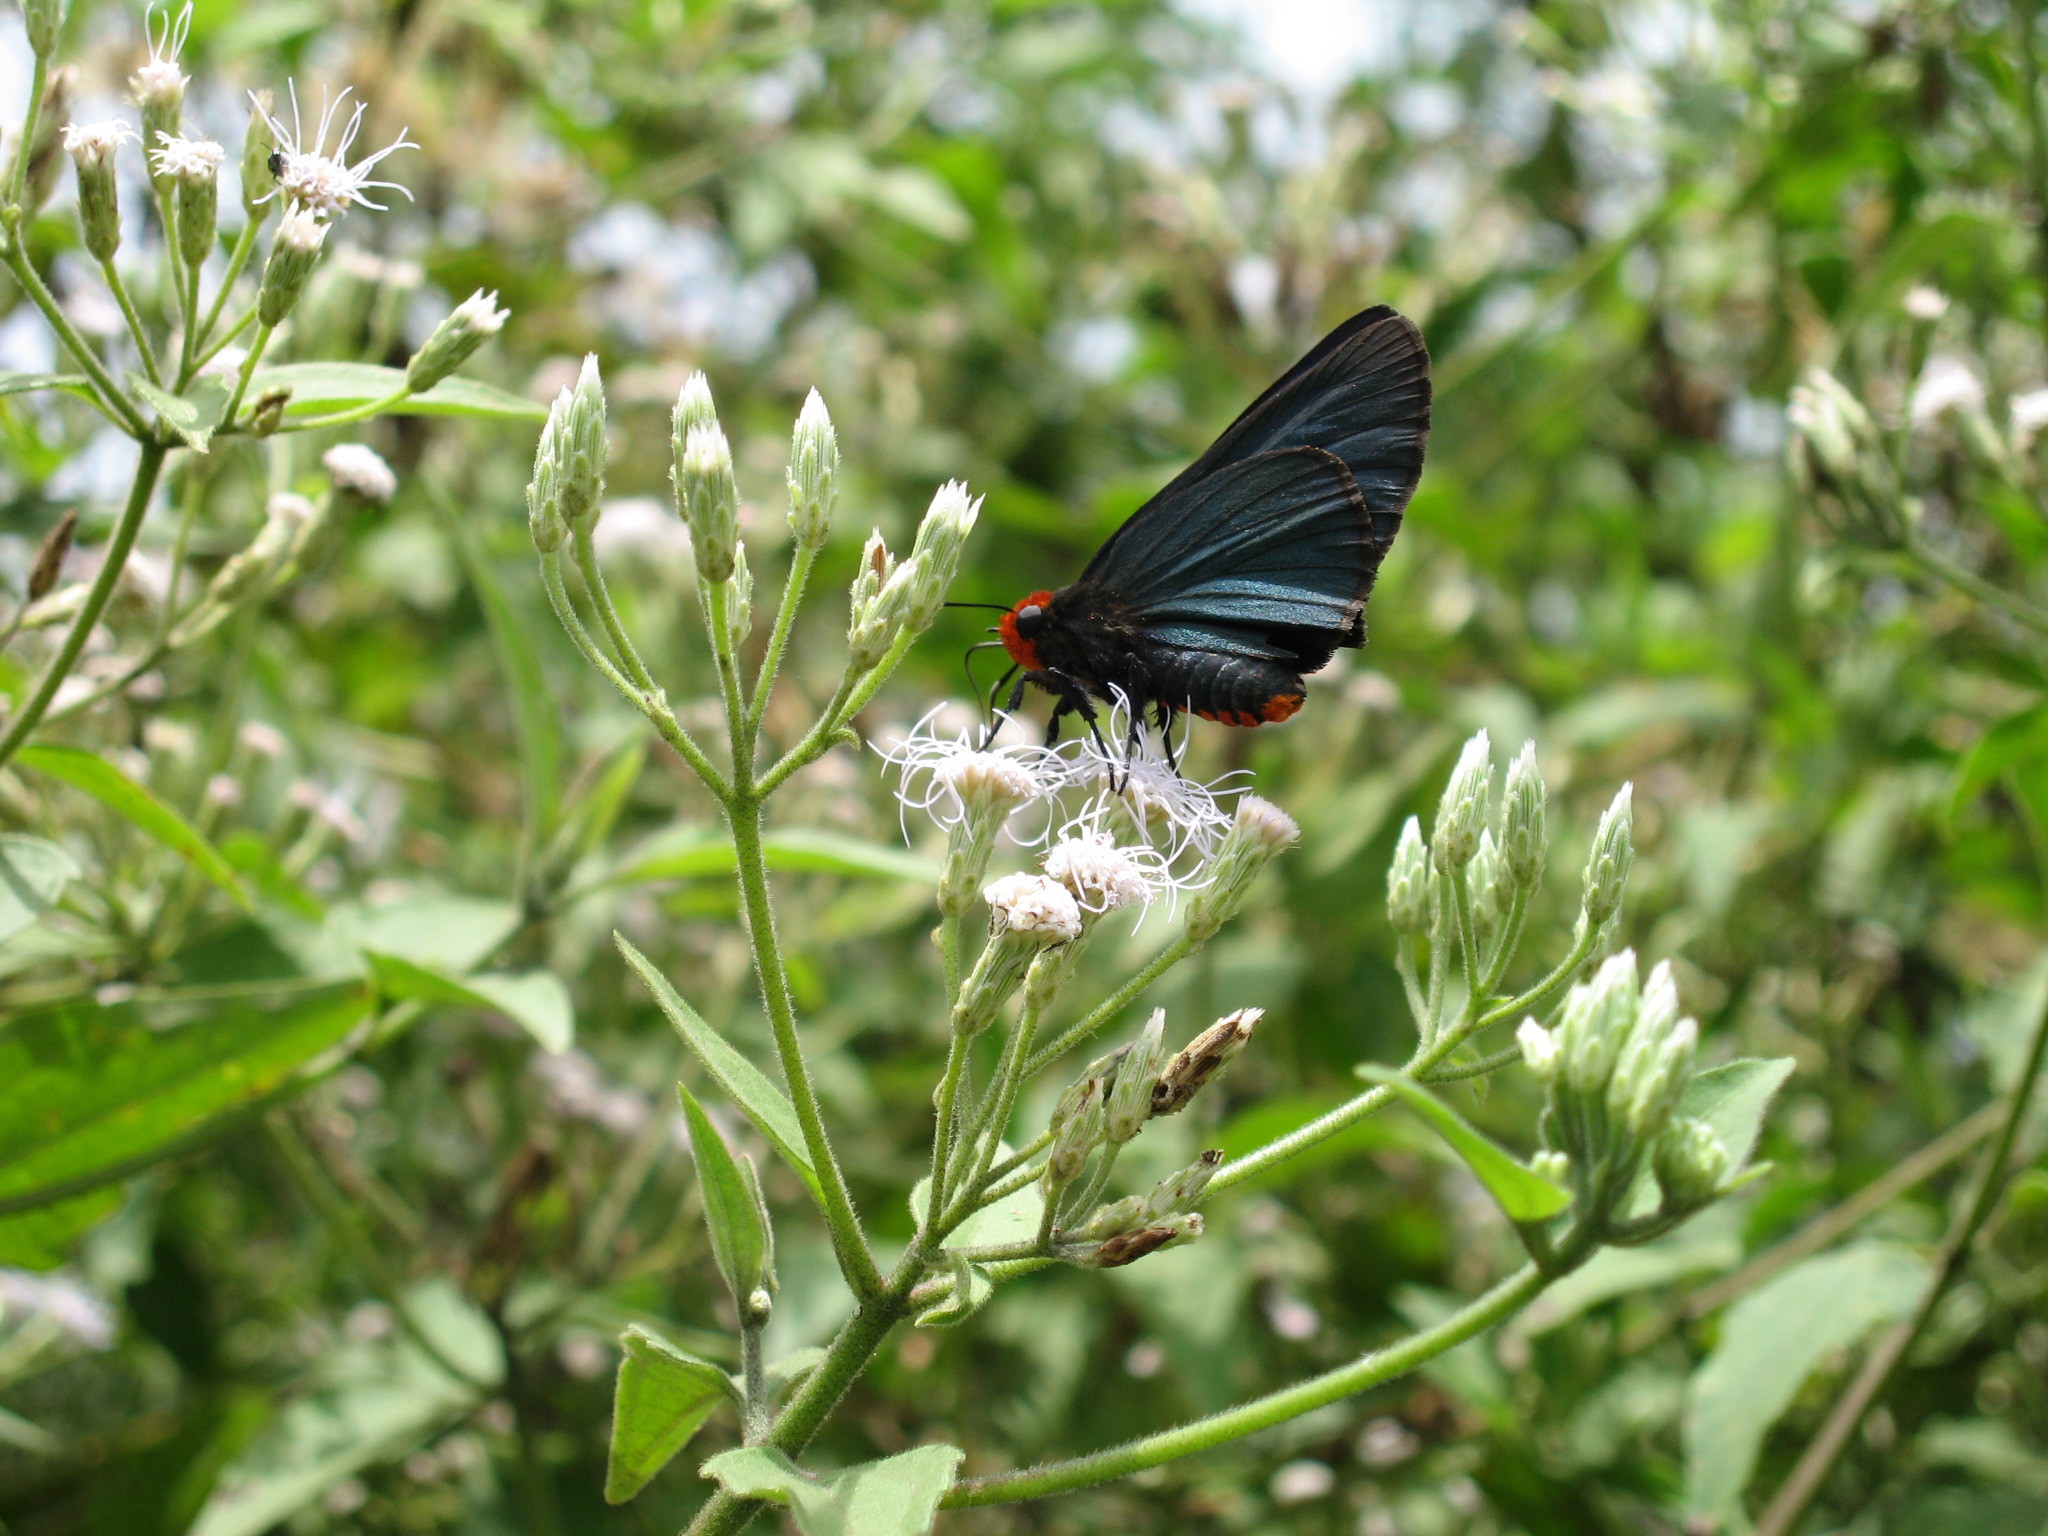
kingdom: Animalia
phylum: Arthropoda
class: Insecta
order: Lepidoptera
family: Hesperiidae
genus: Coeliades
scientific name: Coeliades
